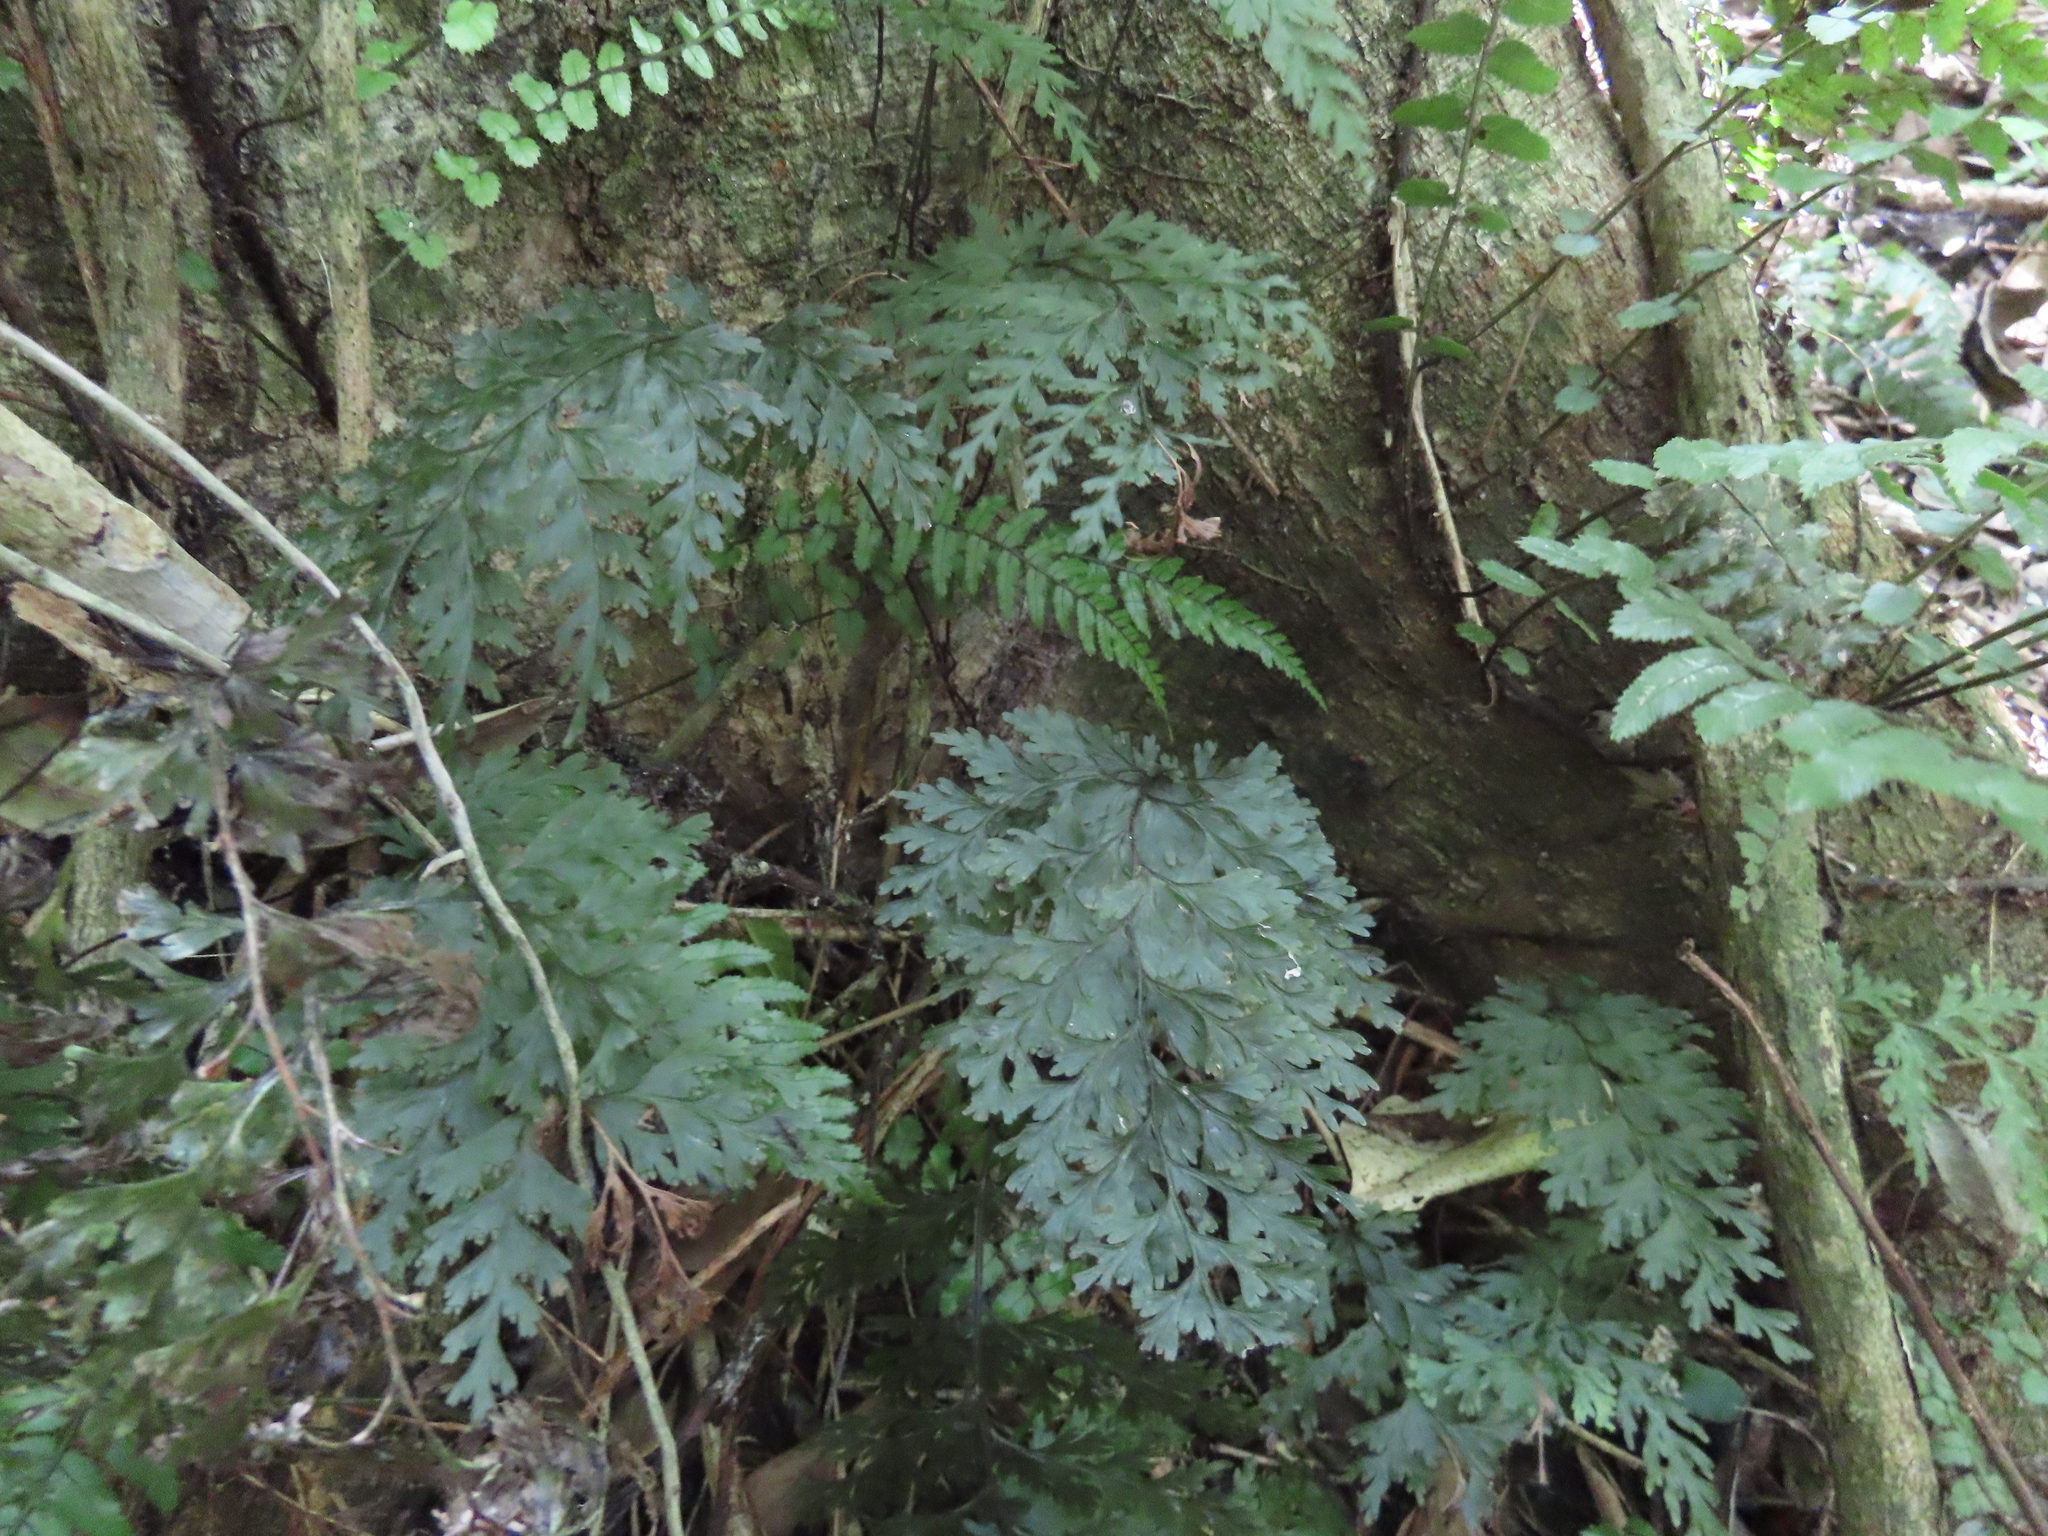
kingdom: Plantae
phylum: Tracheophyta
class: Polypodiopsida
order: Hymenophyllales
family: Hymenophyllaceae
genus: Hymenophyllum
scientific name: Hymenophyllum demissum
